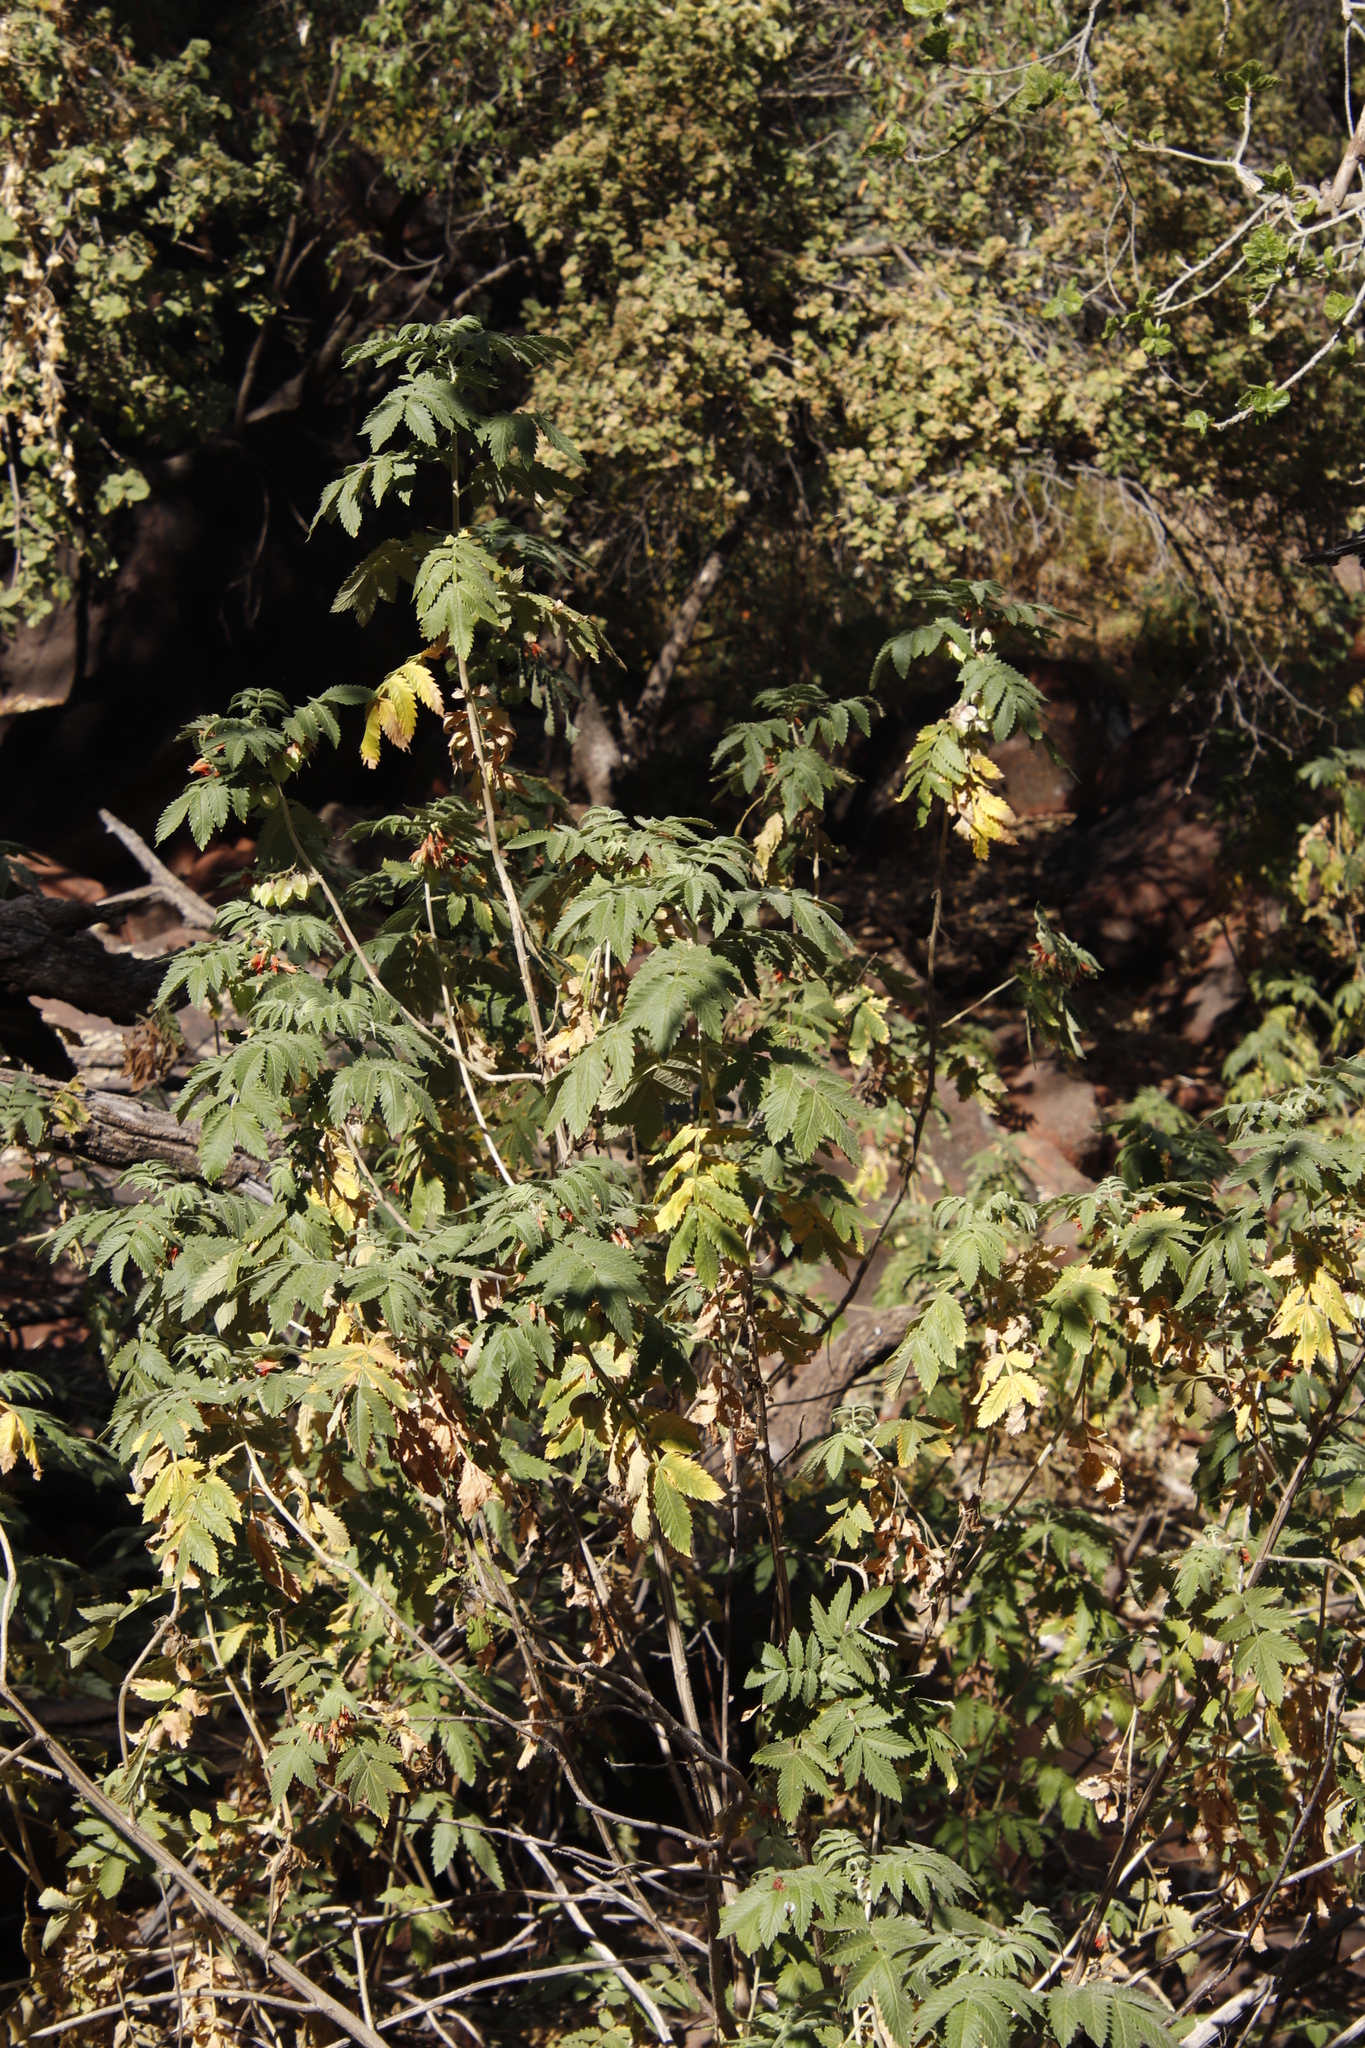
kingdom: Plantae
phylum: Tracheophyta
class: Magnoliopsida
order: Geraniales
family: Melianthaceae
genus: Melianthus
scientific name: Melianthus comosus
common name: Touch-me-not
